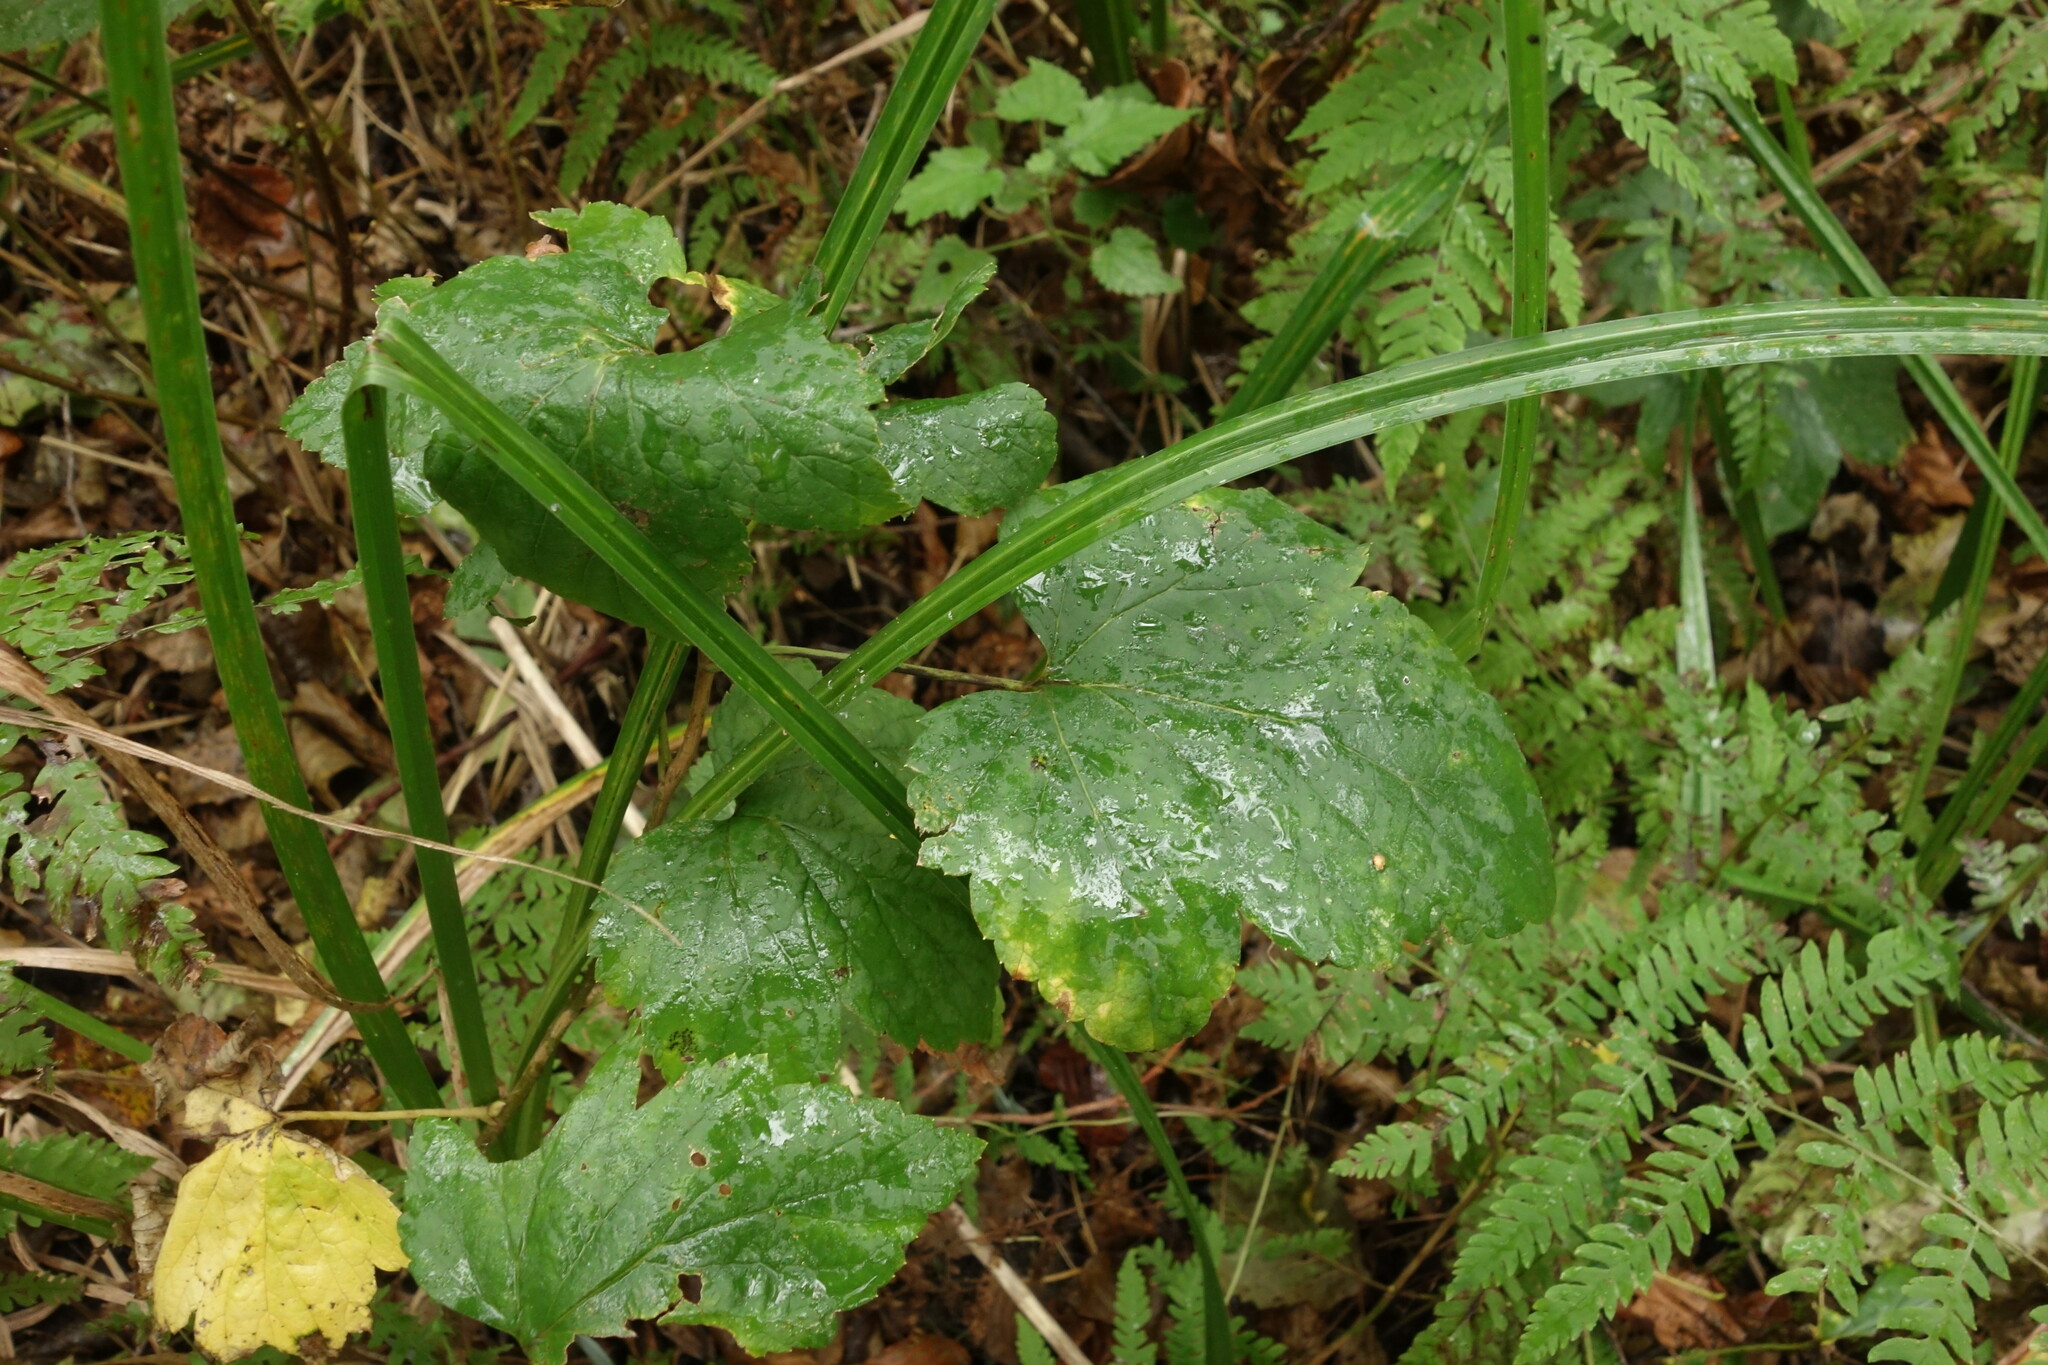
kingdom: Plantae
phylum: Tracheophyta
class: Magnoliopsida
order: Saxifragales
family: Grossulariaceae
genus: Ribes
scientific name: Ribes nigrum
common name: Black currant
